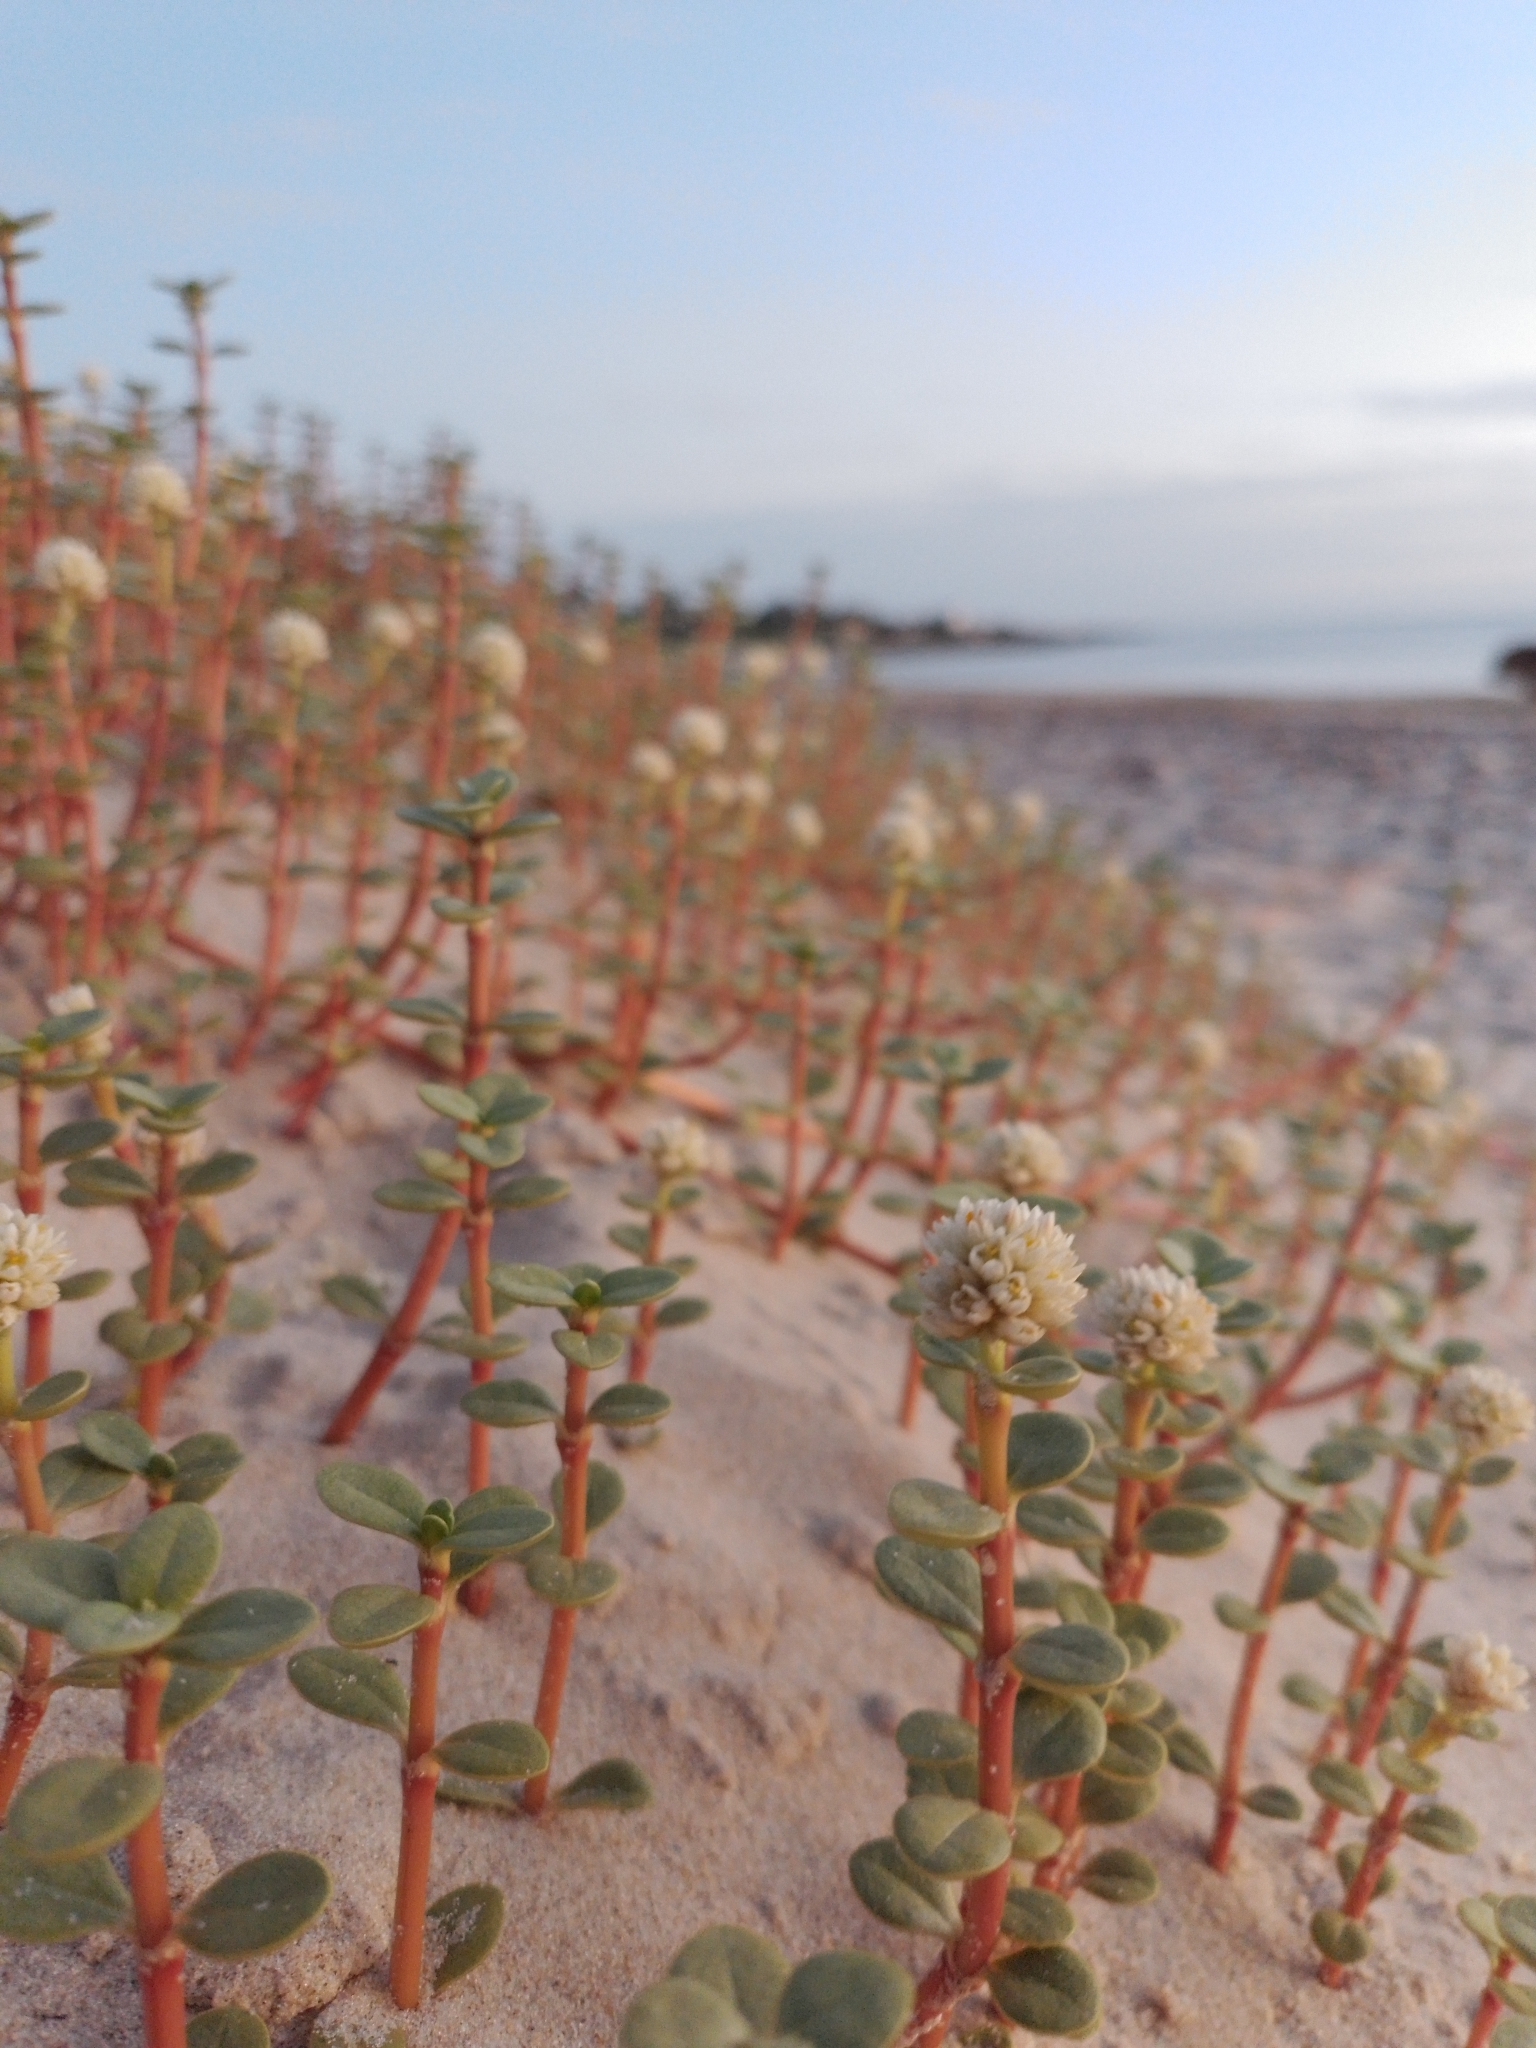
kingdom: Plantae
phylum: Tracheophyta
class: Magnoliopsida
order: Caryophyllales
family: Amaranthaceae
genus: Gomphrena
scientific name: Gomphrena portulacoides
